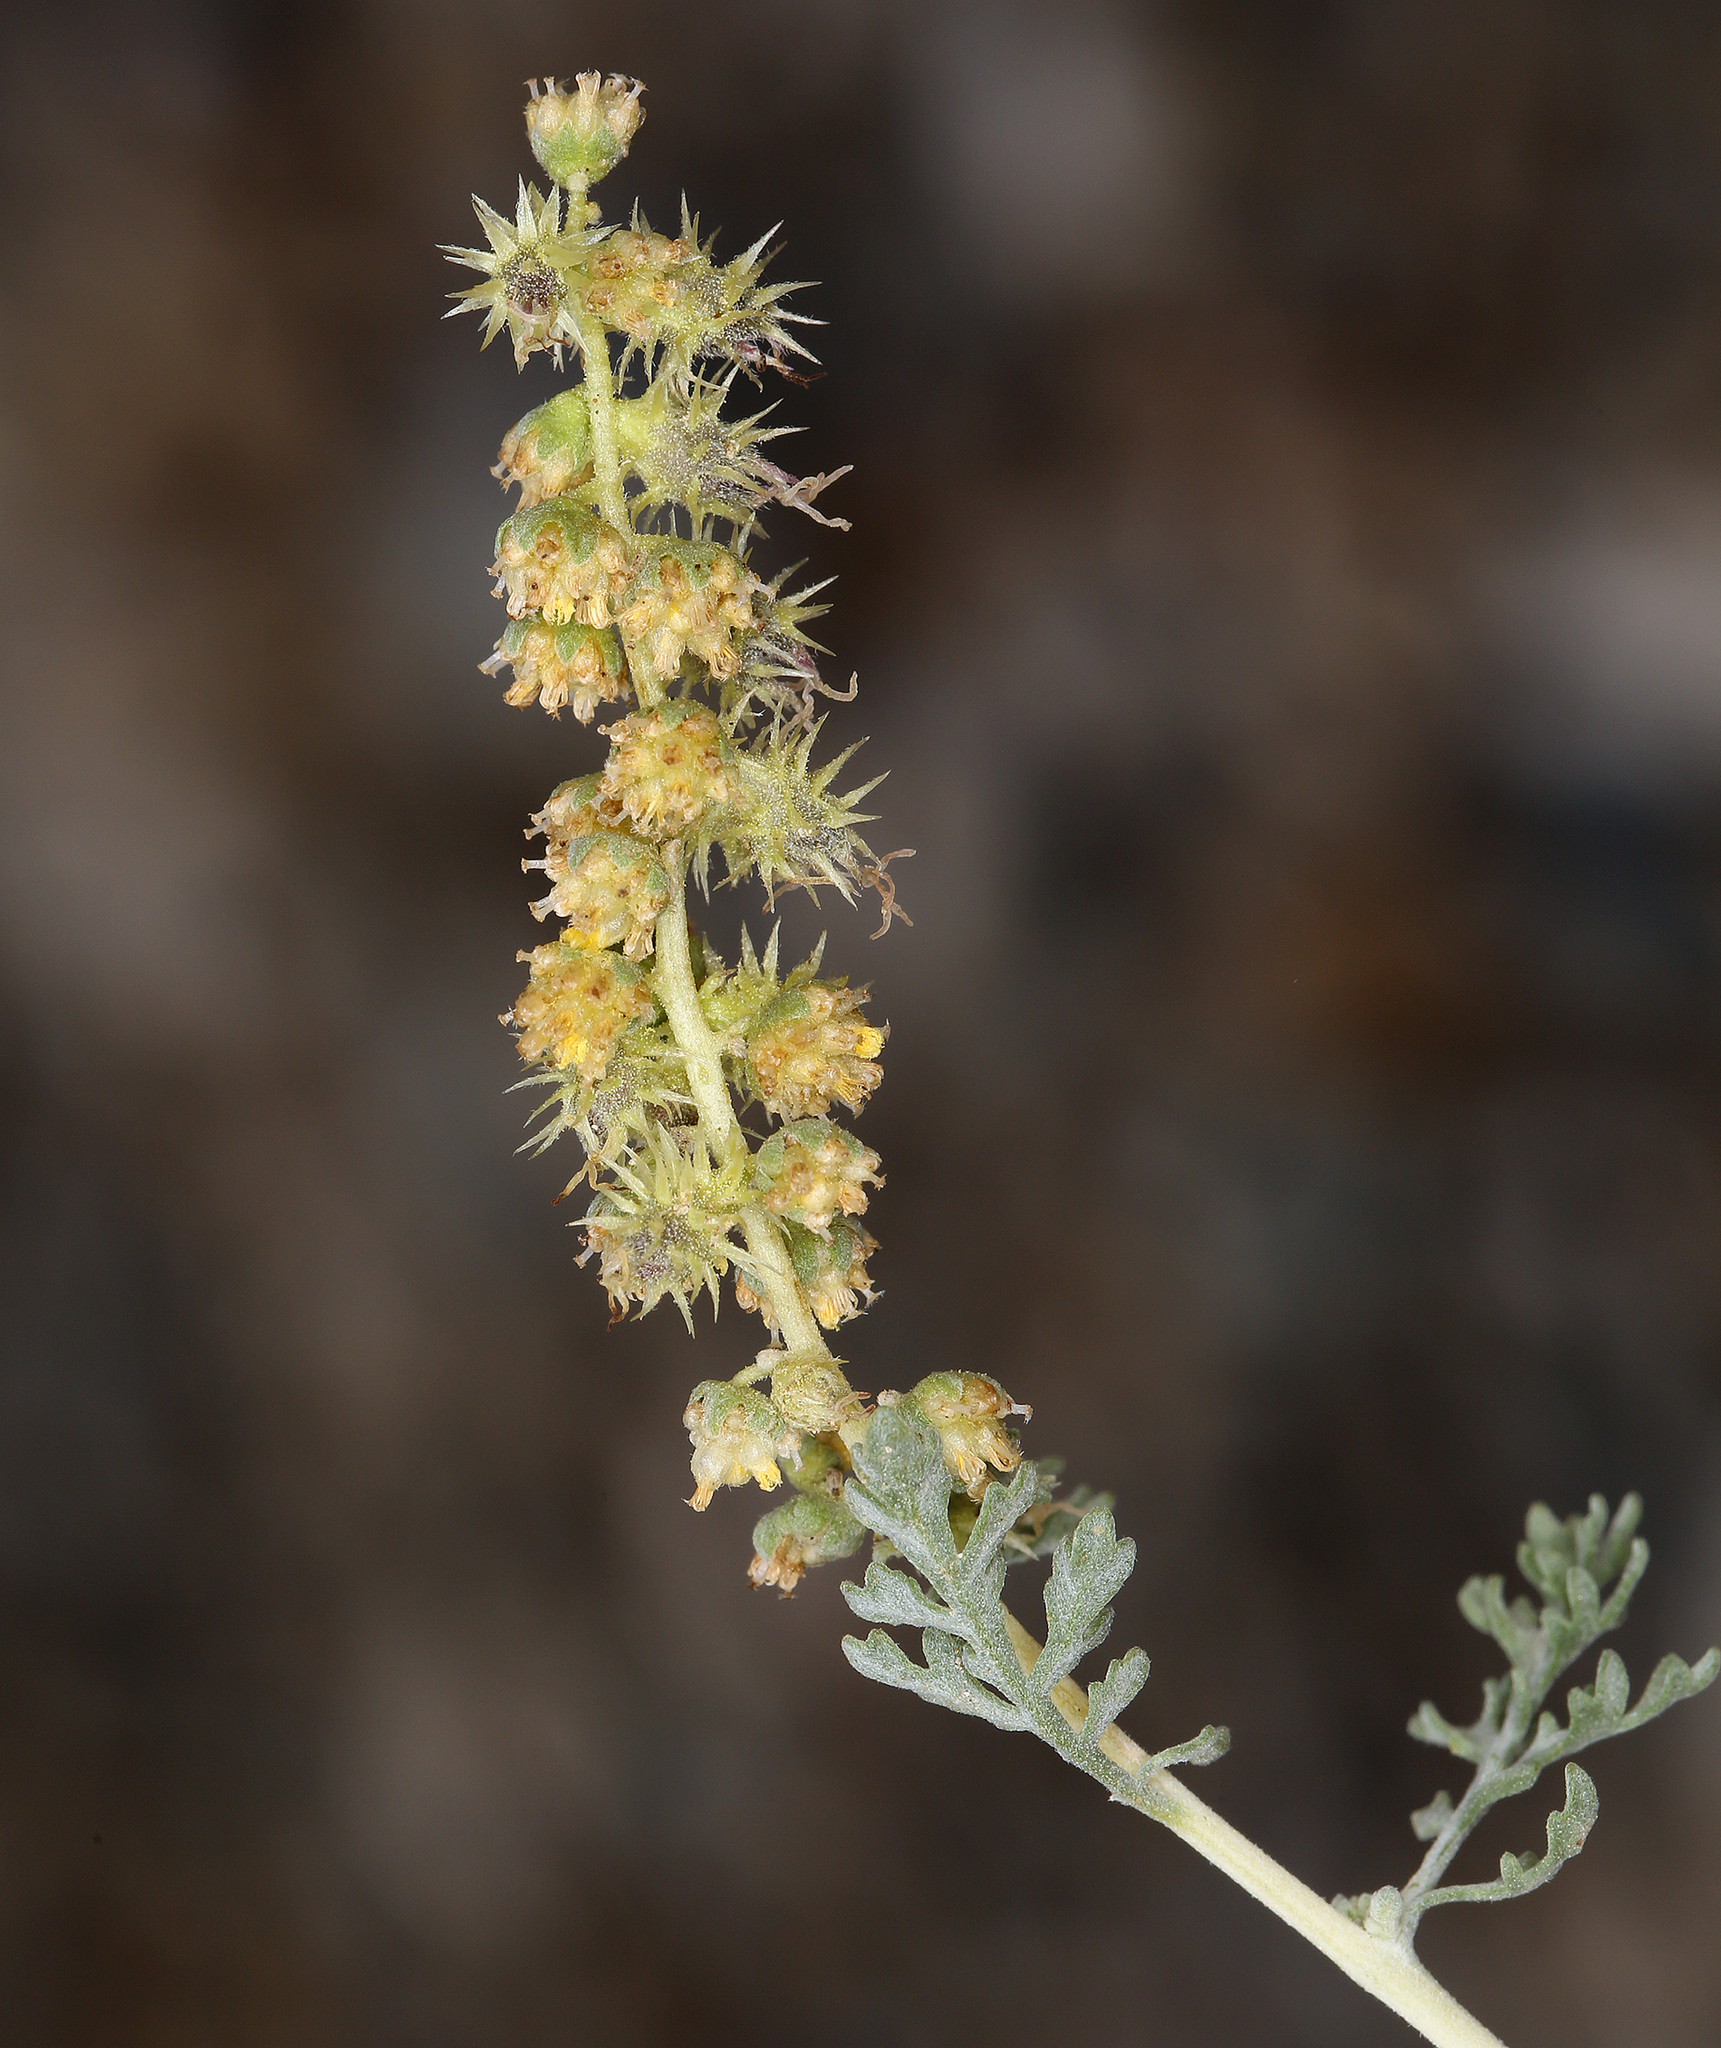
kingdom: Plantae
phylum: Tracheophyta
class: Magnoliopsida
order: Asterales
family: Asteraceae
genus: Ambrosia
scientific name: Ambrosia dumosa
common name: Bur-sage
